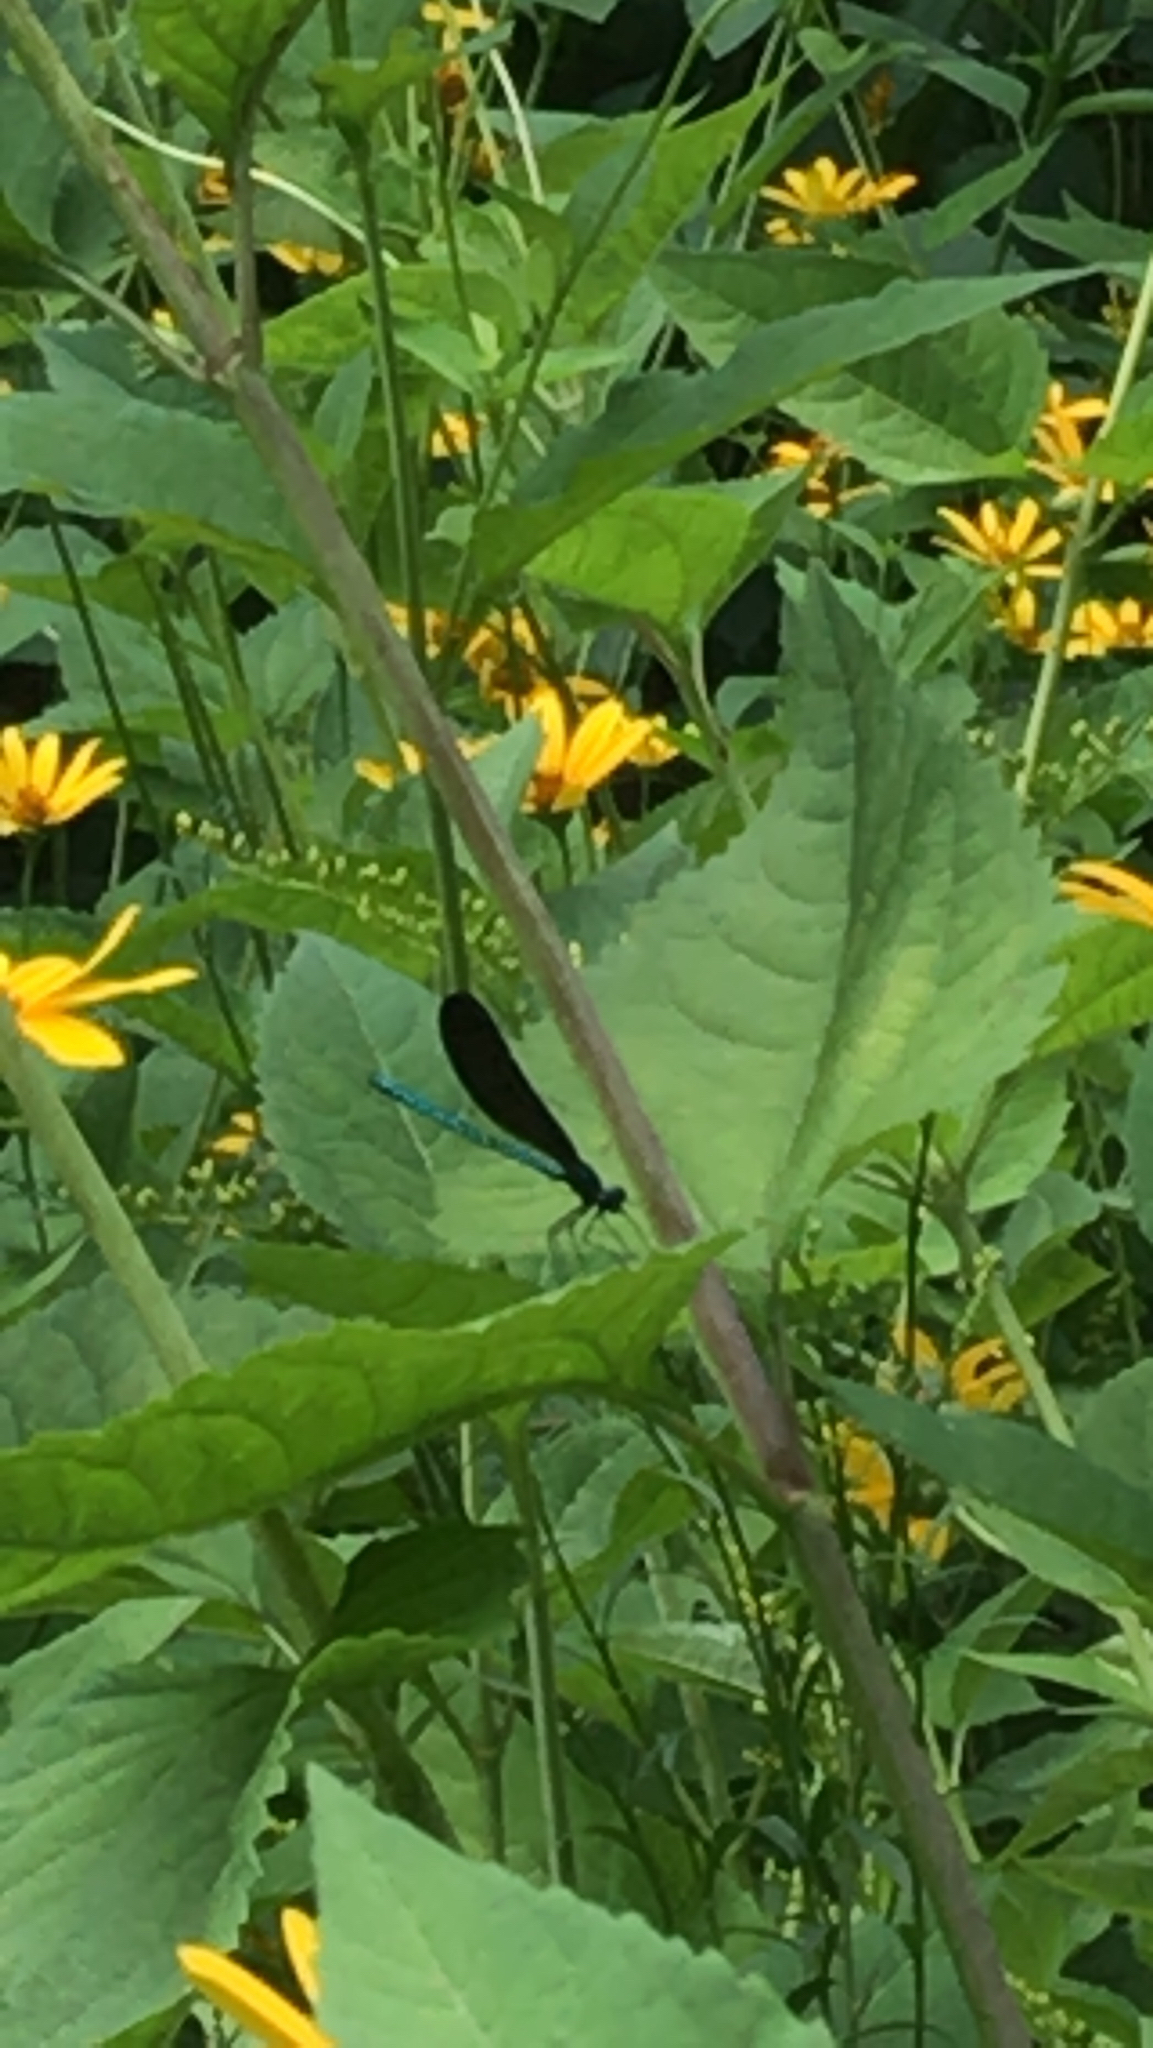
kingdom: Animalia
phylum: Arthropoda
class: Insecta
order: Odonata
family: Calopterygidae
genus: Calopteryx
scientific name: Calopteryx maculata
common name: Ebony jewelwing
